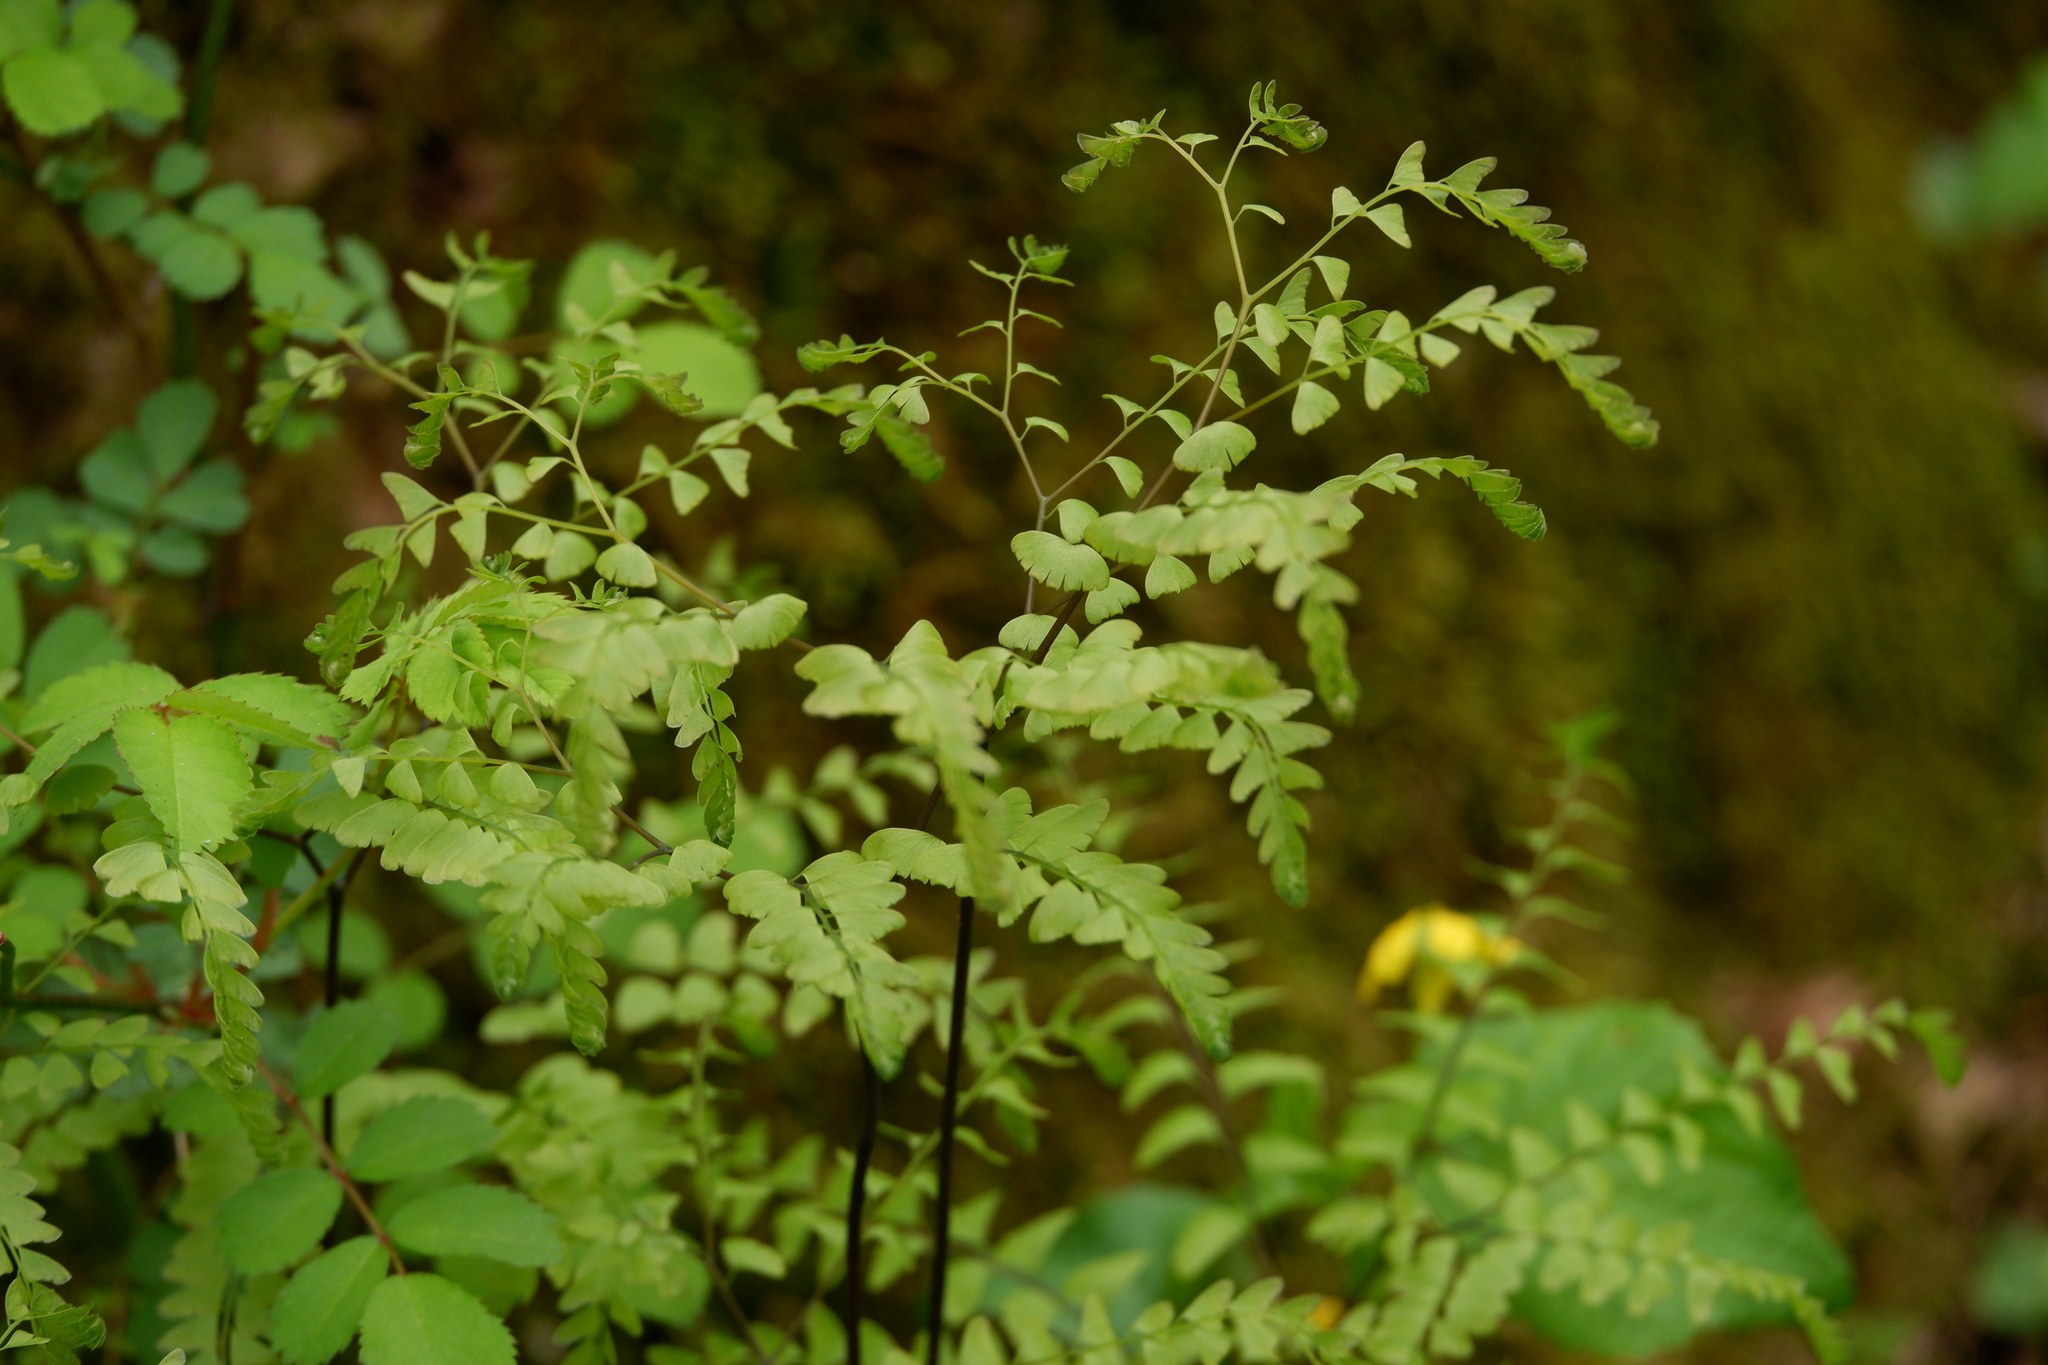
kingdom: Plantae
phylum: Tracheophyta
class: Polypodiopsida
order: Polypodiales
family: Pteridaceae
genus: Adiantum
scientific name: Adiantum pedatum
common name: Five-finger fern
